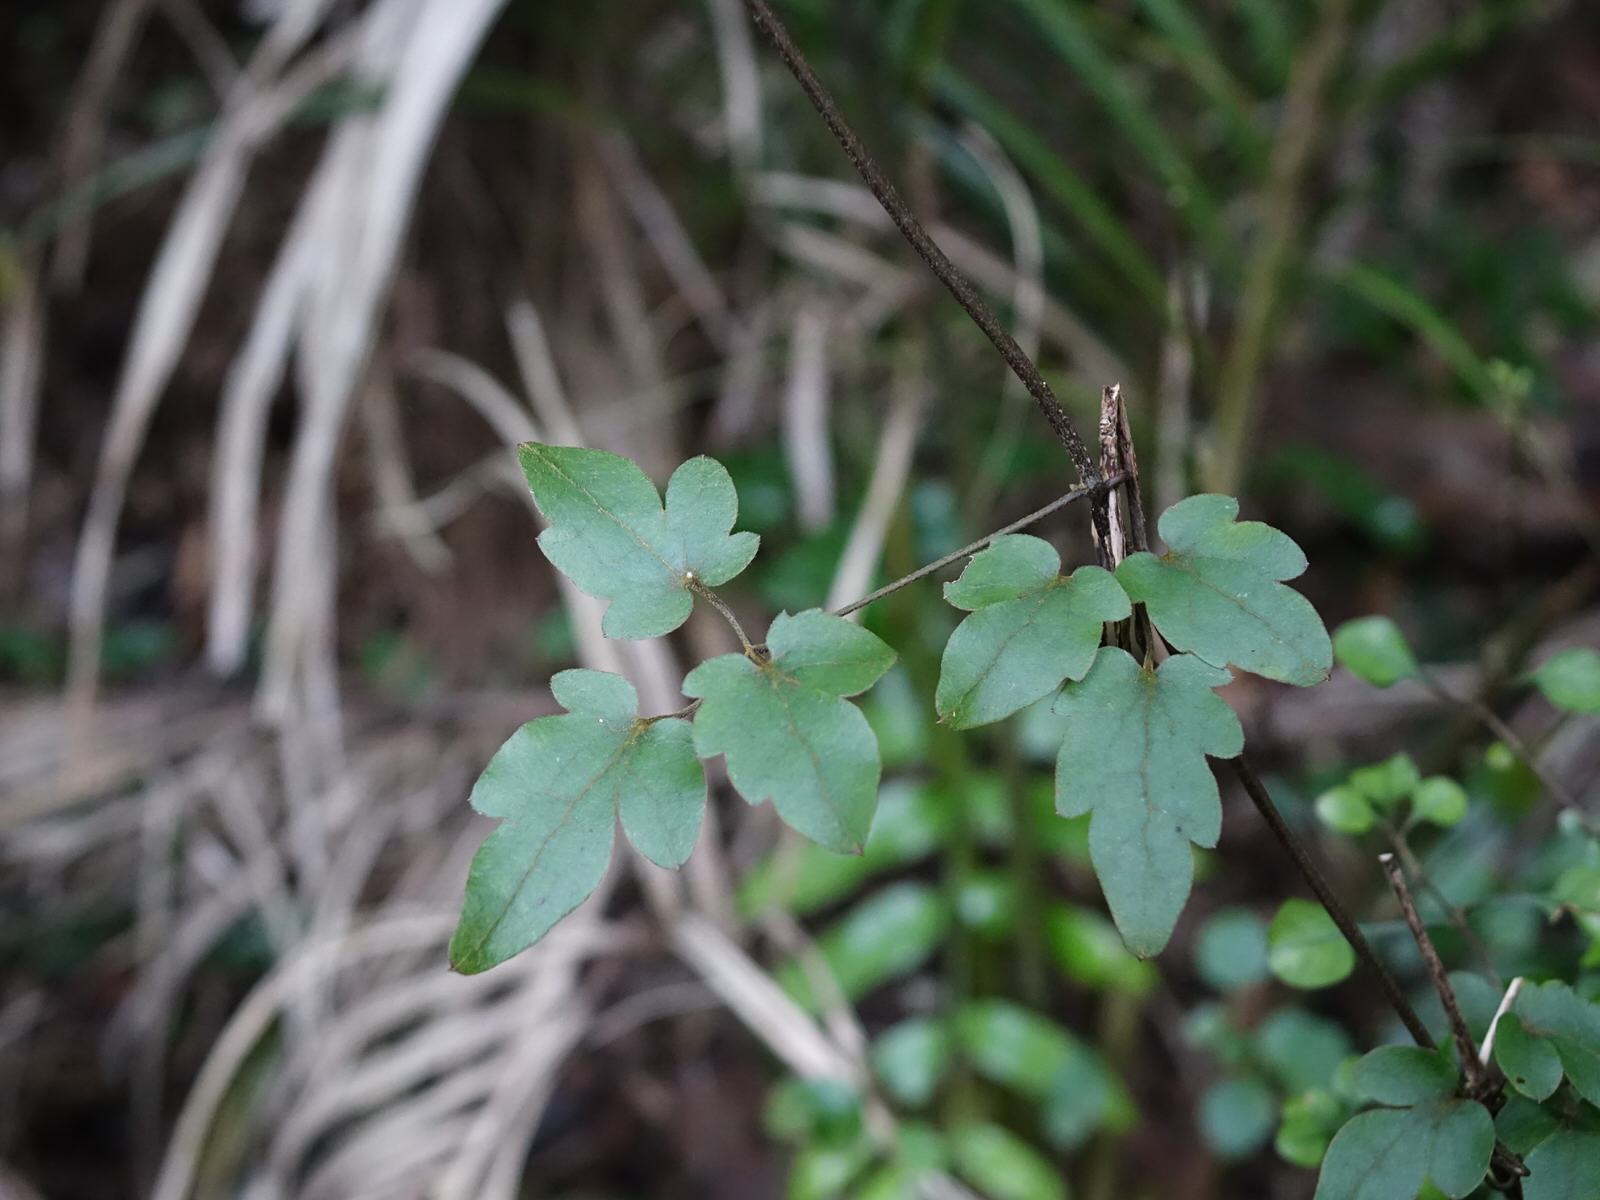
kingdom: Plantae
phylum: Tracheophyta
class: Magnoliopsida
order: Ranunculales
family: Ranunculaceae
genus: Clematis
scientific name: Clematis paniculata
